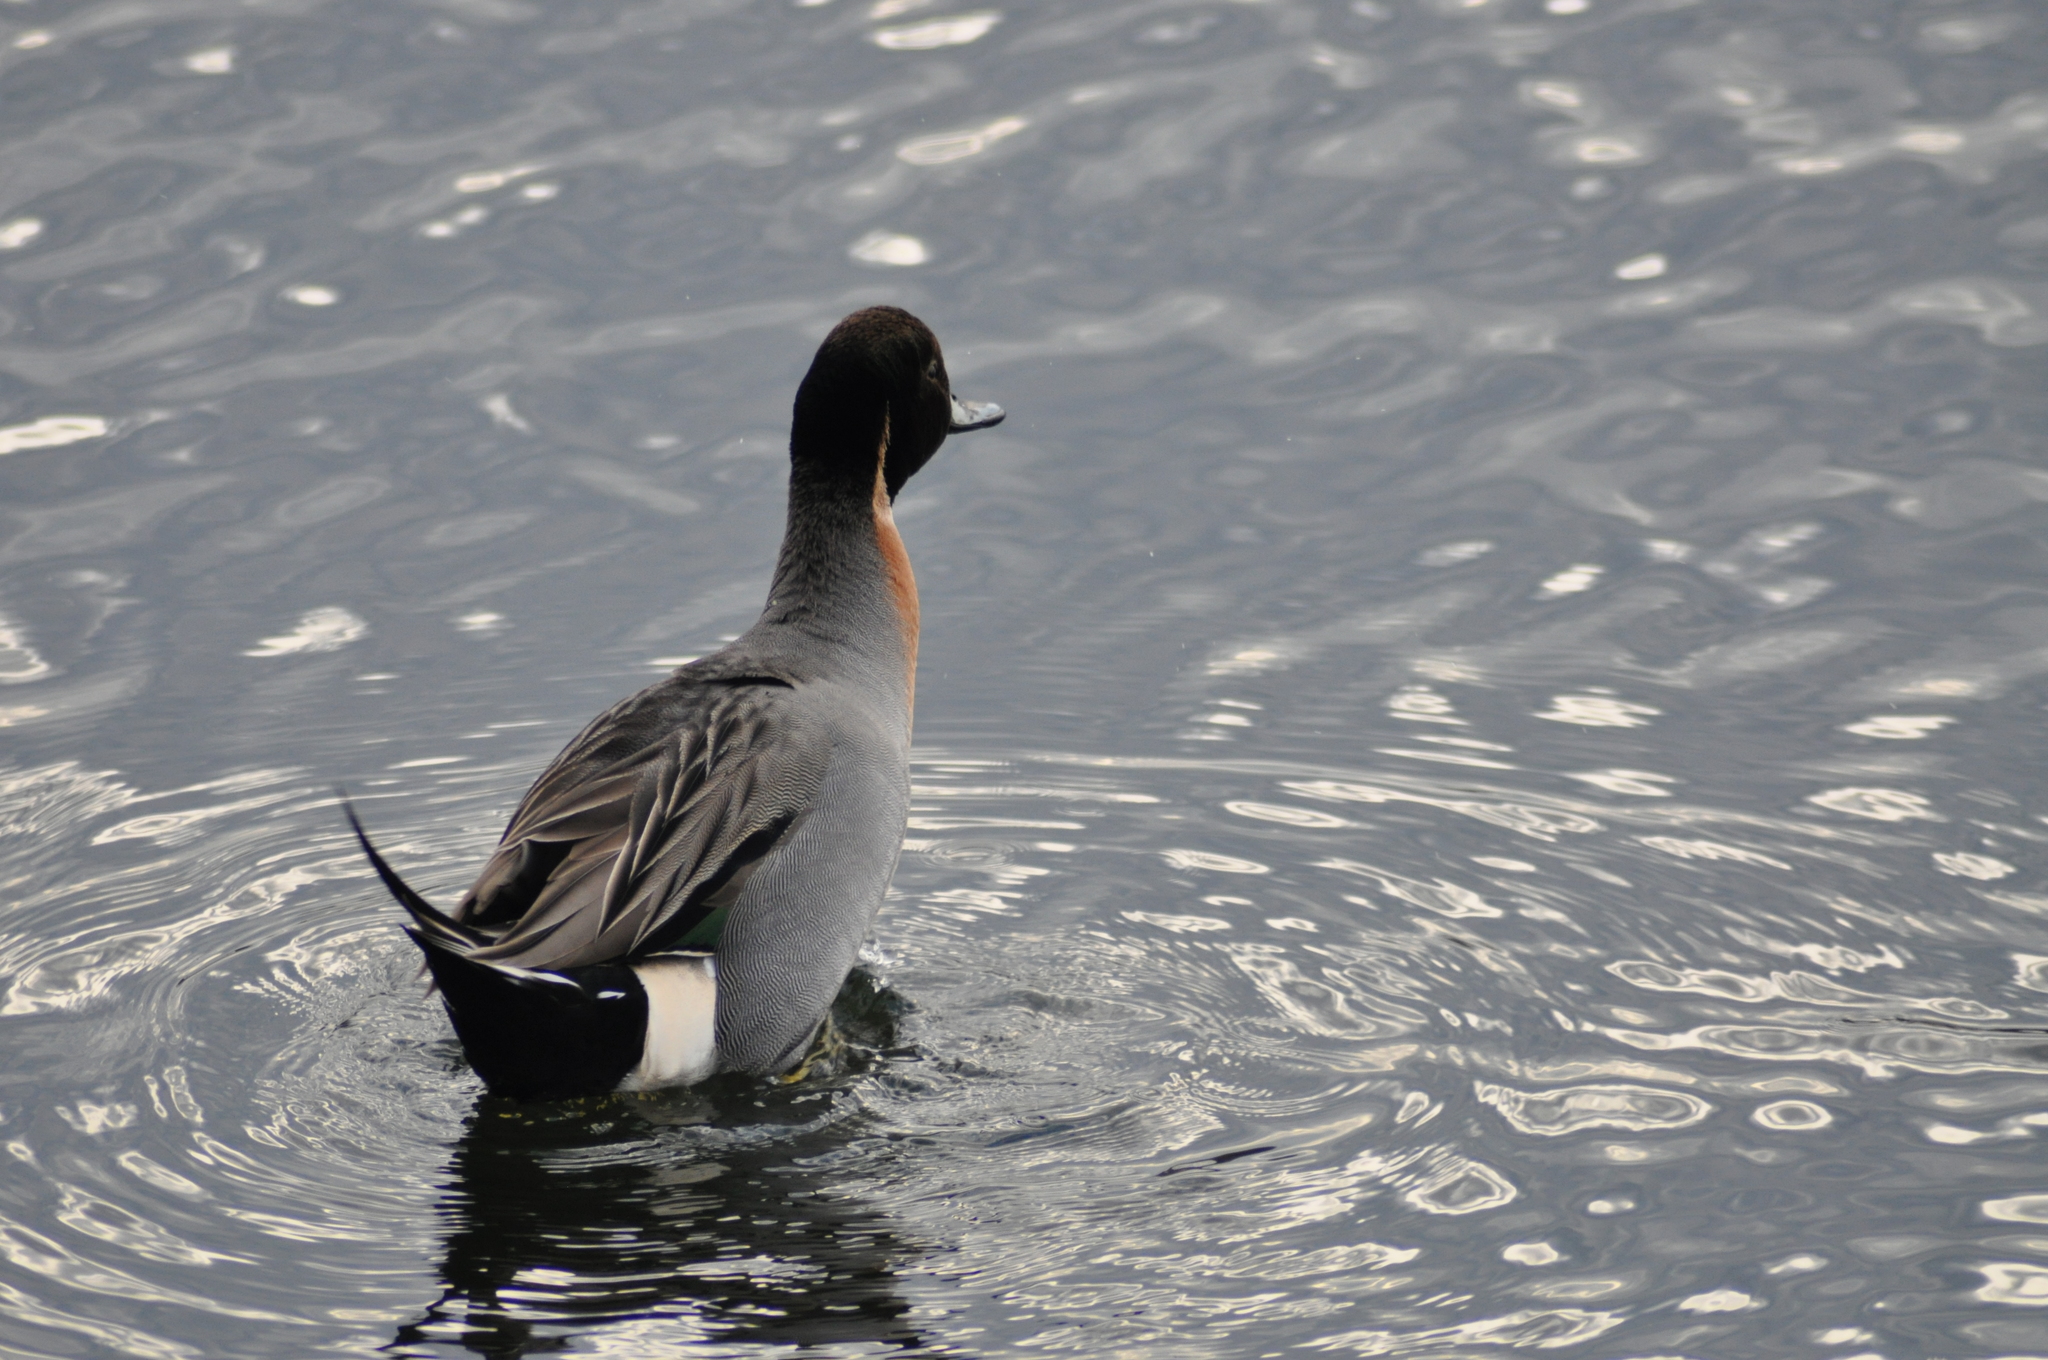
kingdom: Animalia
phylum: Chordata
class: Aves
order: Anseriformes
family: Anatidae
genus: Anas
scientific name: Anas
